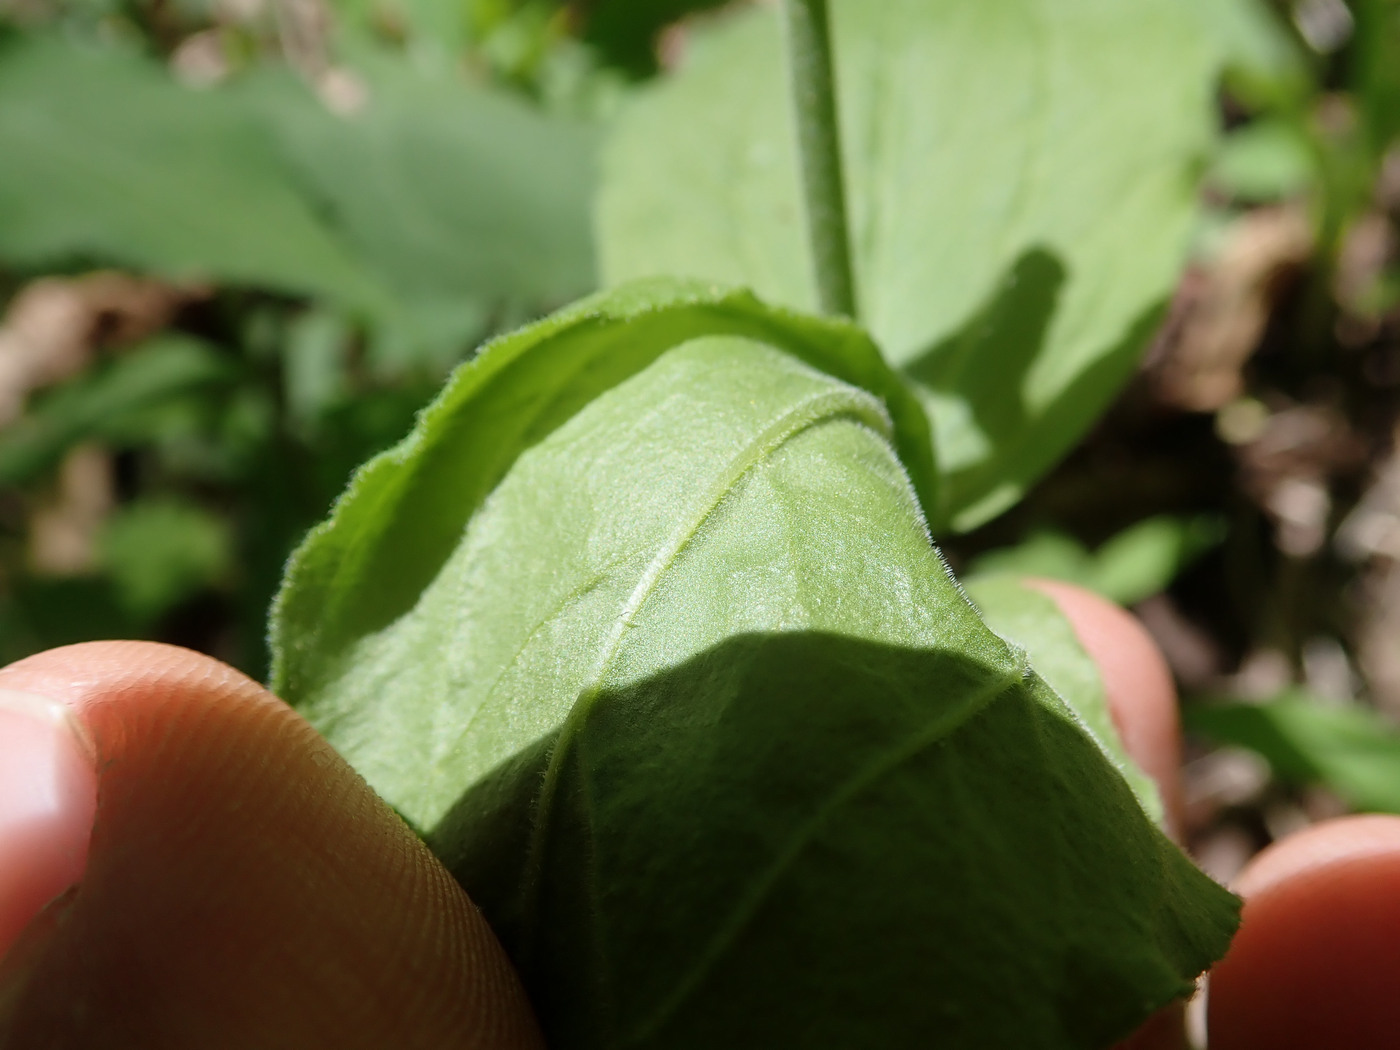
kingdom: Plantae
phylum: Tracheophyta
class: Magnoliopsida
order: Caryophyllales
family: Caryophyllaceae
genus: Silene
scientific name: Silene ovata
